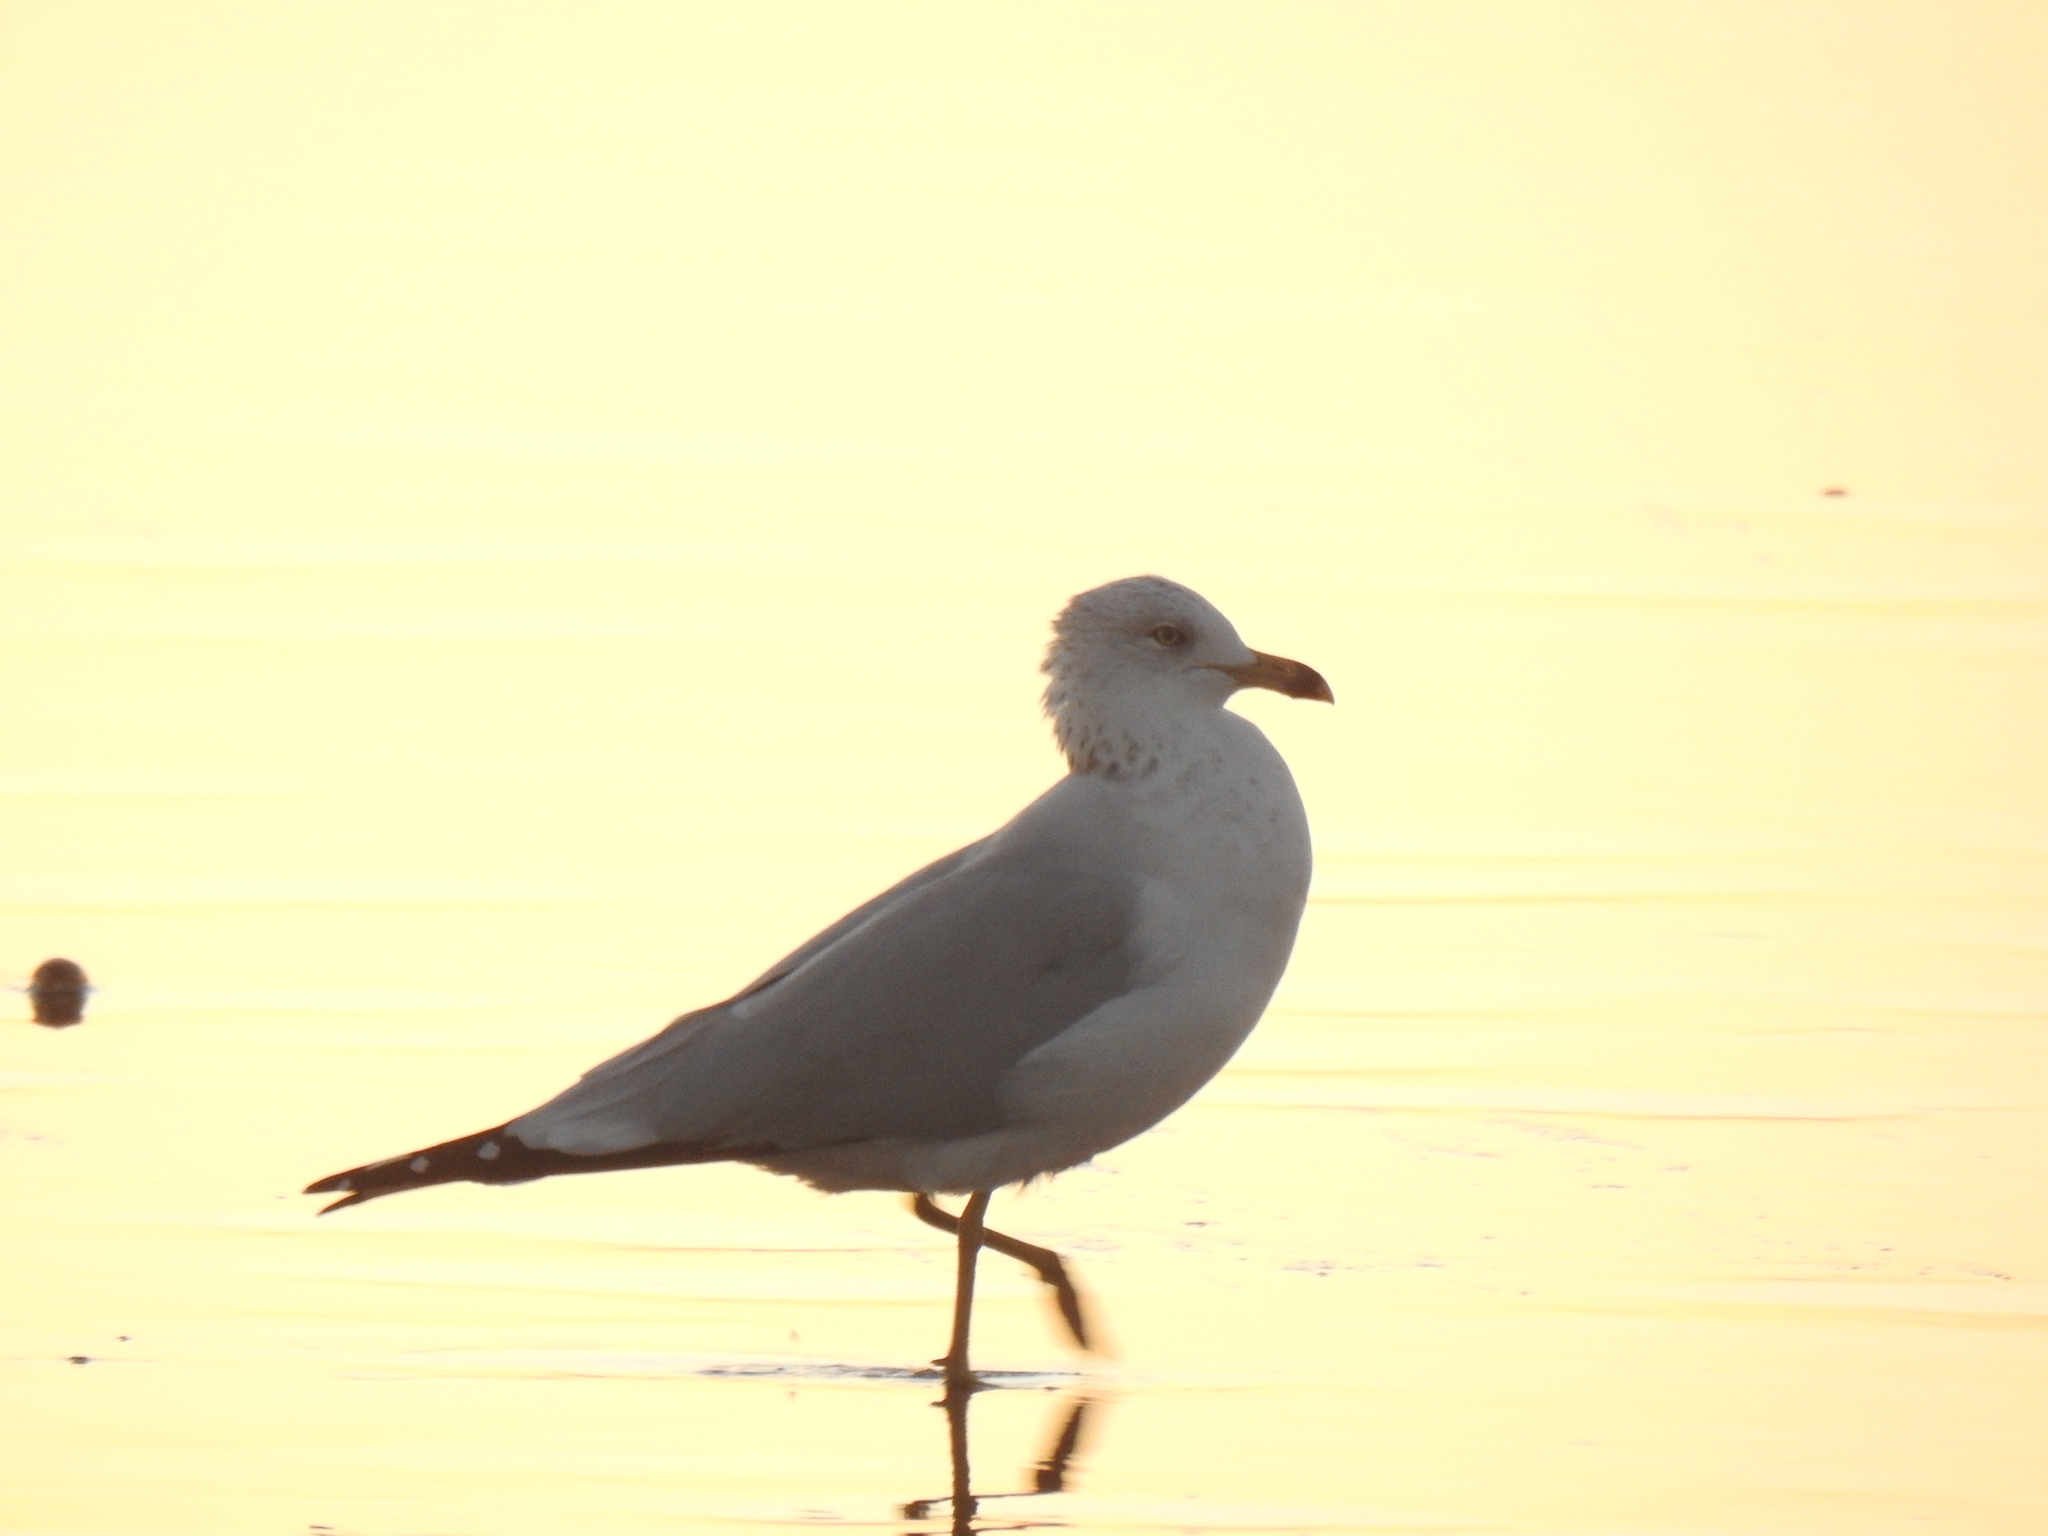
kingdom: Animalia
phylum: Chordata
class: Aves
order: Charadriiformes
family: Laridae
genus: Larus
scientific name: Larus delawarensis
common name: Ring-billed gull
